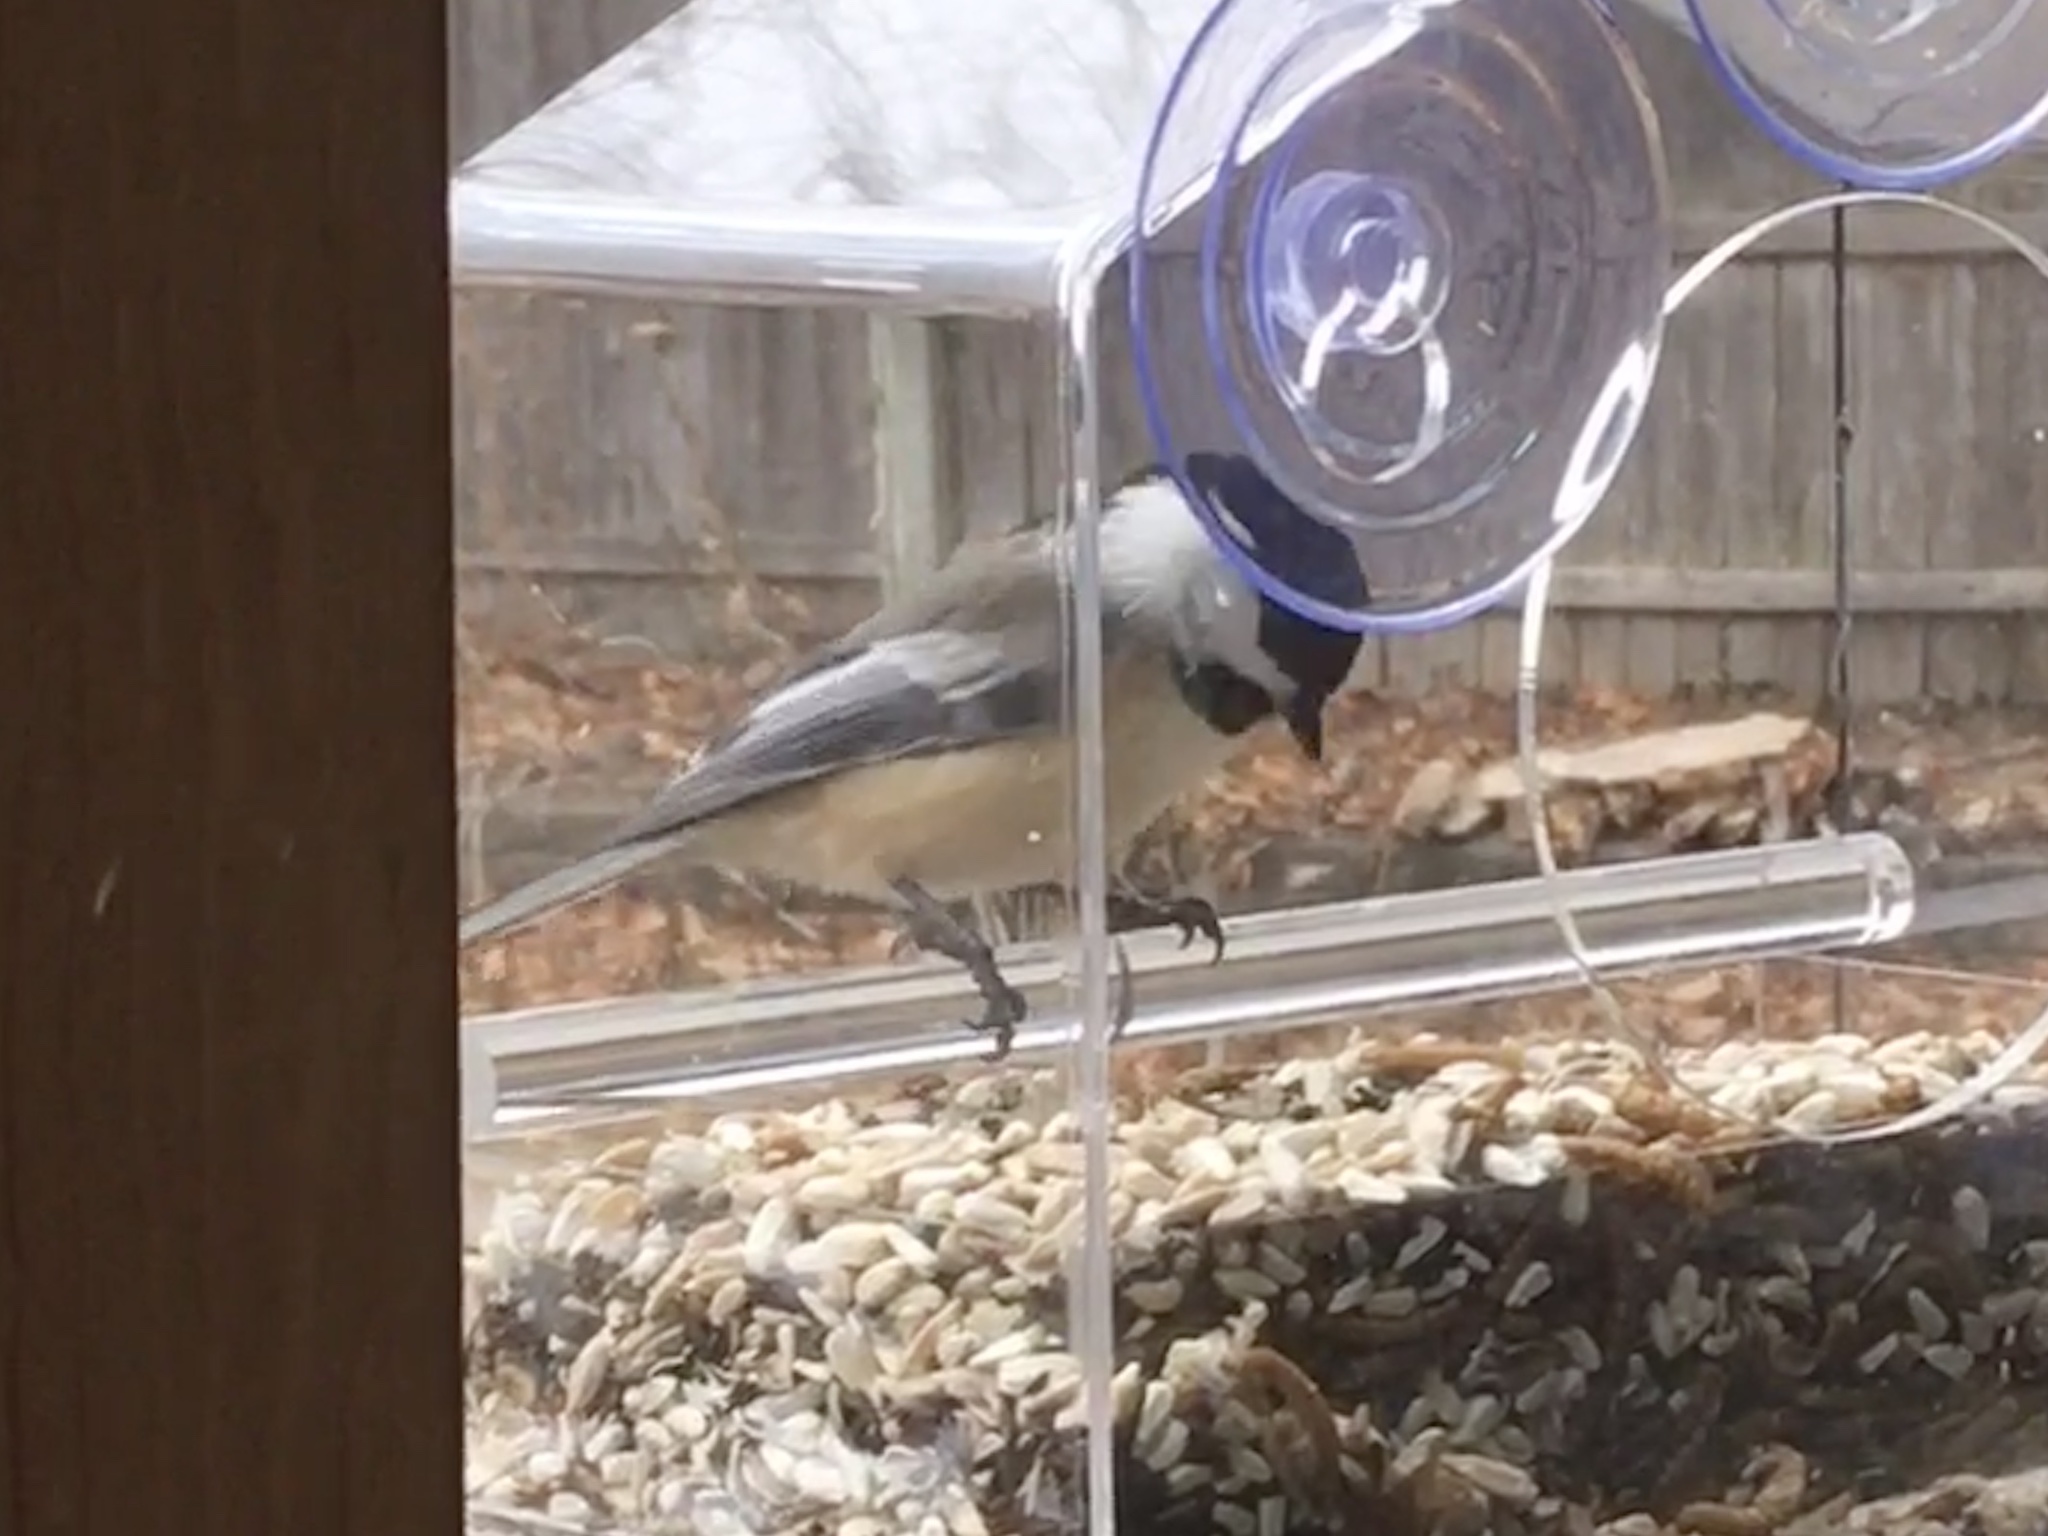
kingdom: Animalia
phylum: Chordata
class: Aves
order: Passeriformes
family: Paridae
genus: Poecile
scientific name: Poecile atricapillus
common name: Black-capped chickadee
